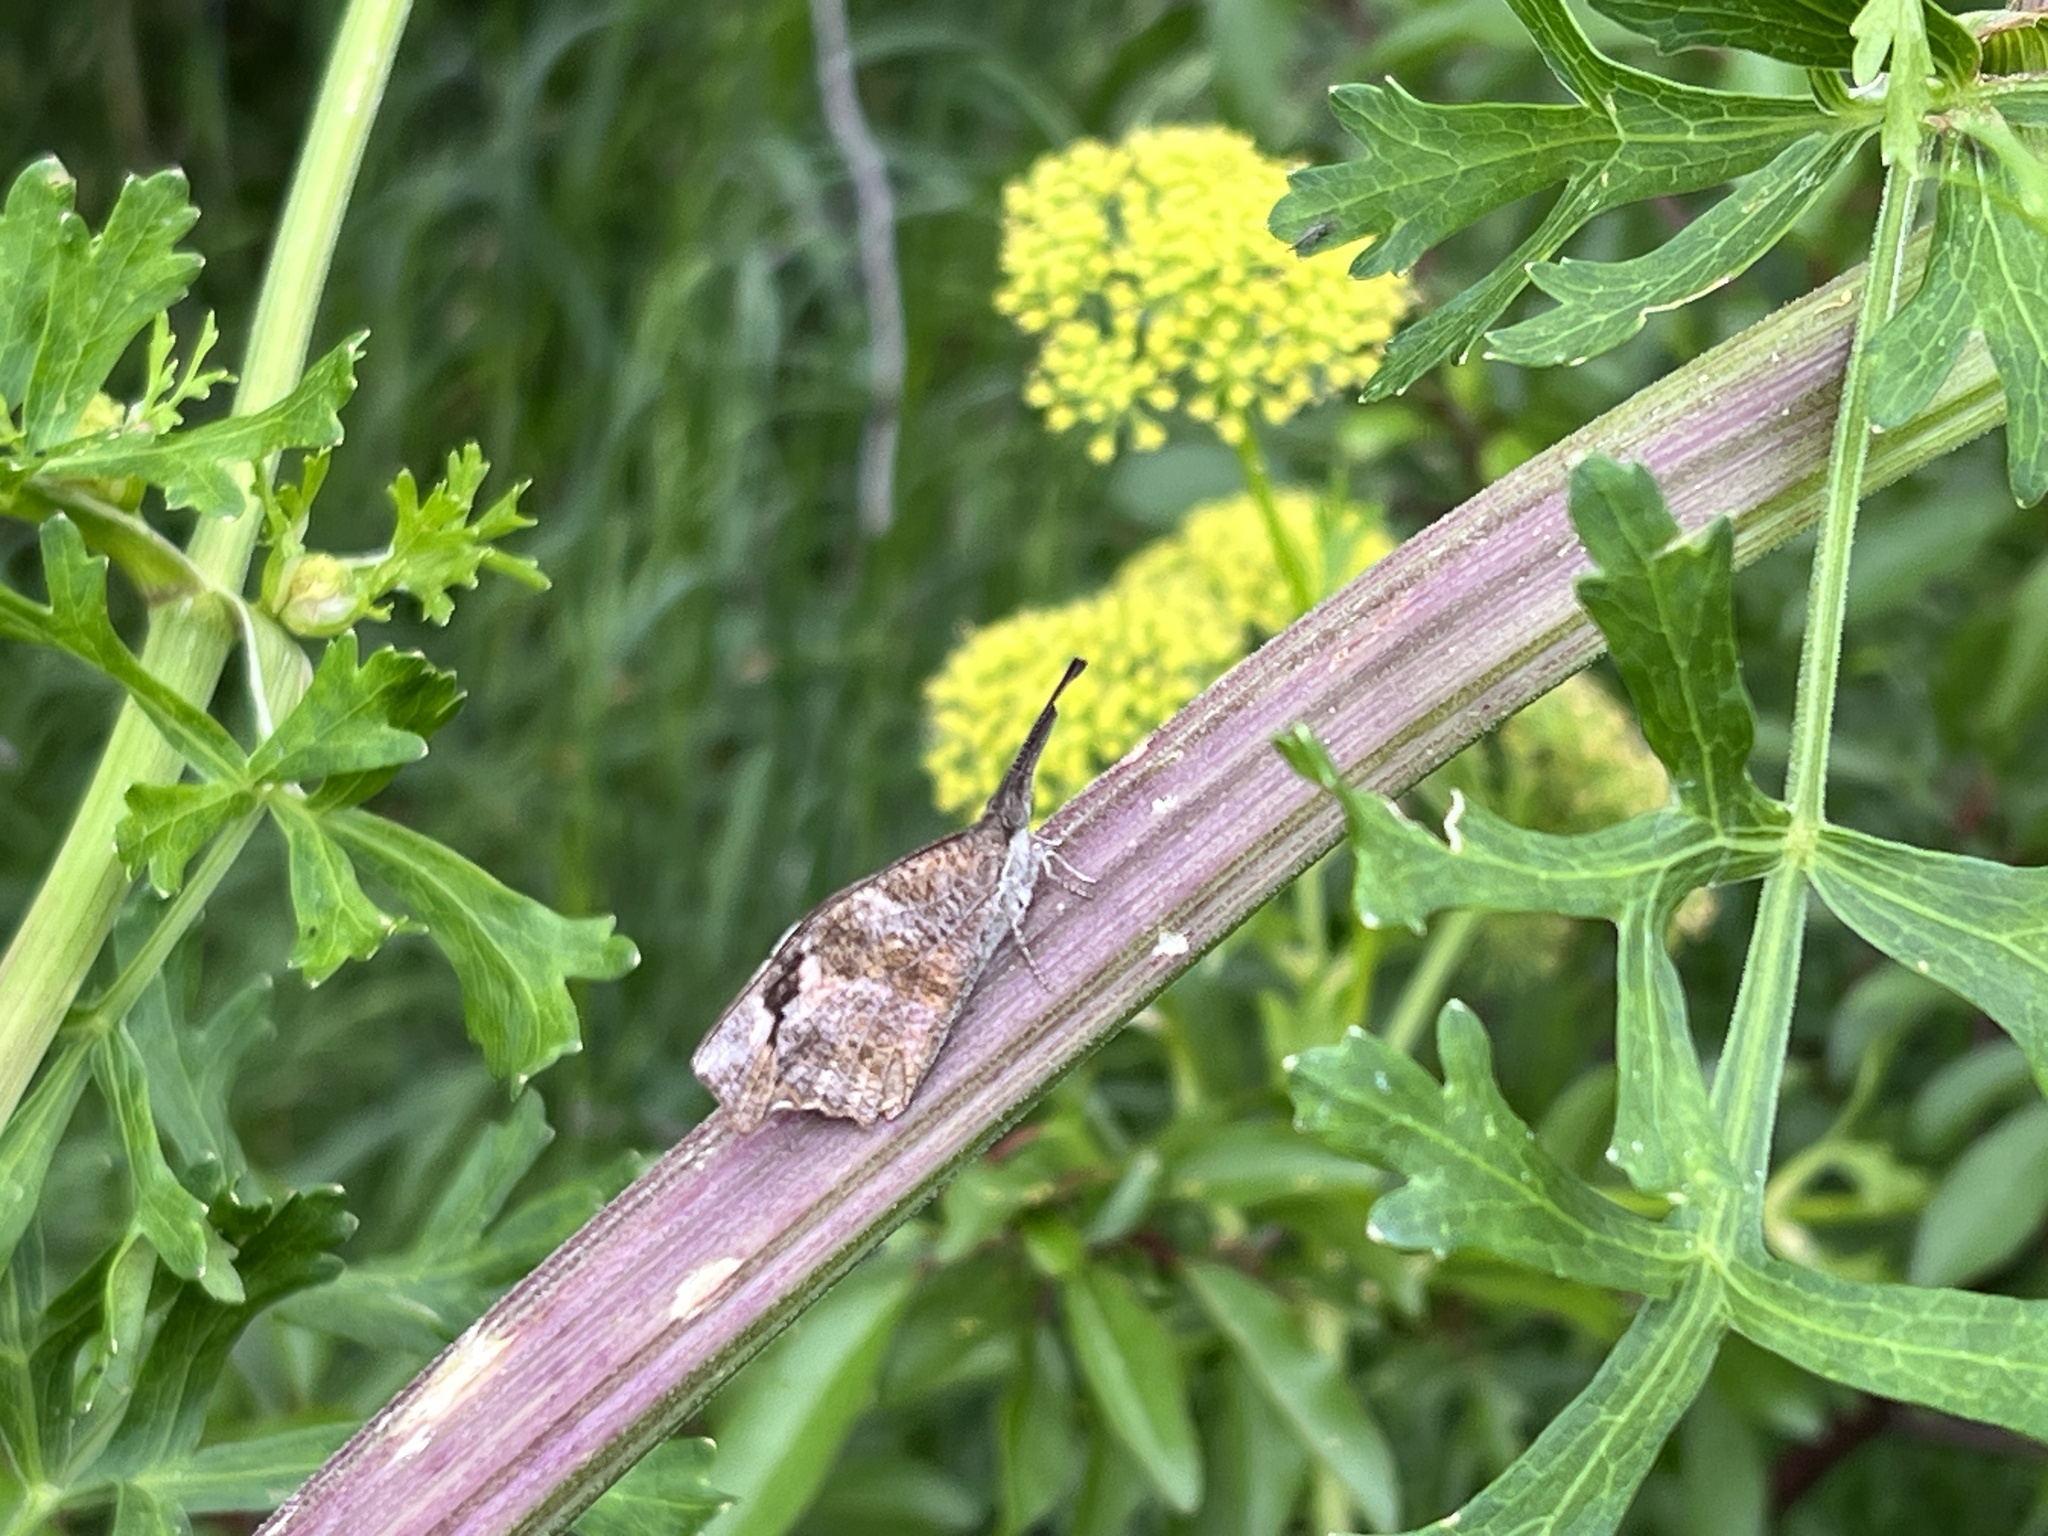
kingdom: Animalia
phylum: Arthropoda
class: Insecta
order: Lepidoptera
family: Nymphalidae
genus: Libytheana
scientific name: Libytheana carinenta
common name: American snout
